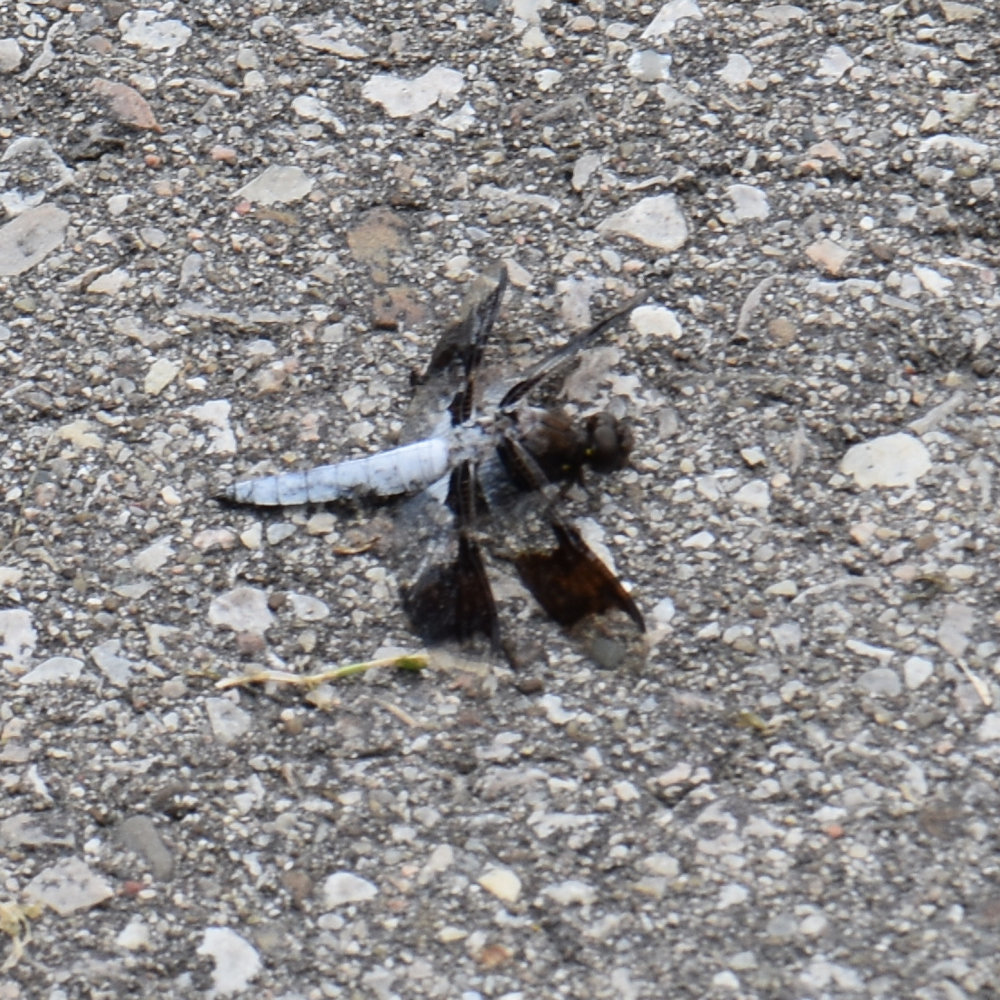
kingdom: Animalia
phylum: Arthropoda
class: Insecta
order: Odonata
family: Libellulidae
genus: Plathemis
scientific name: Plathemis lydia
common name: Common whitetail
